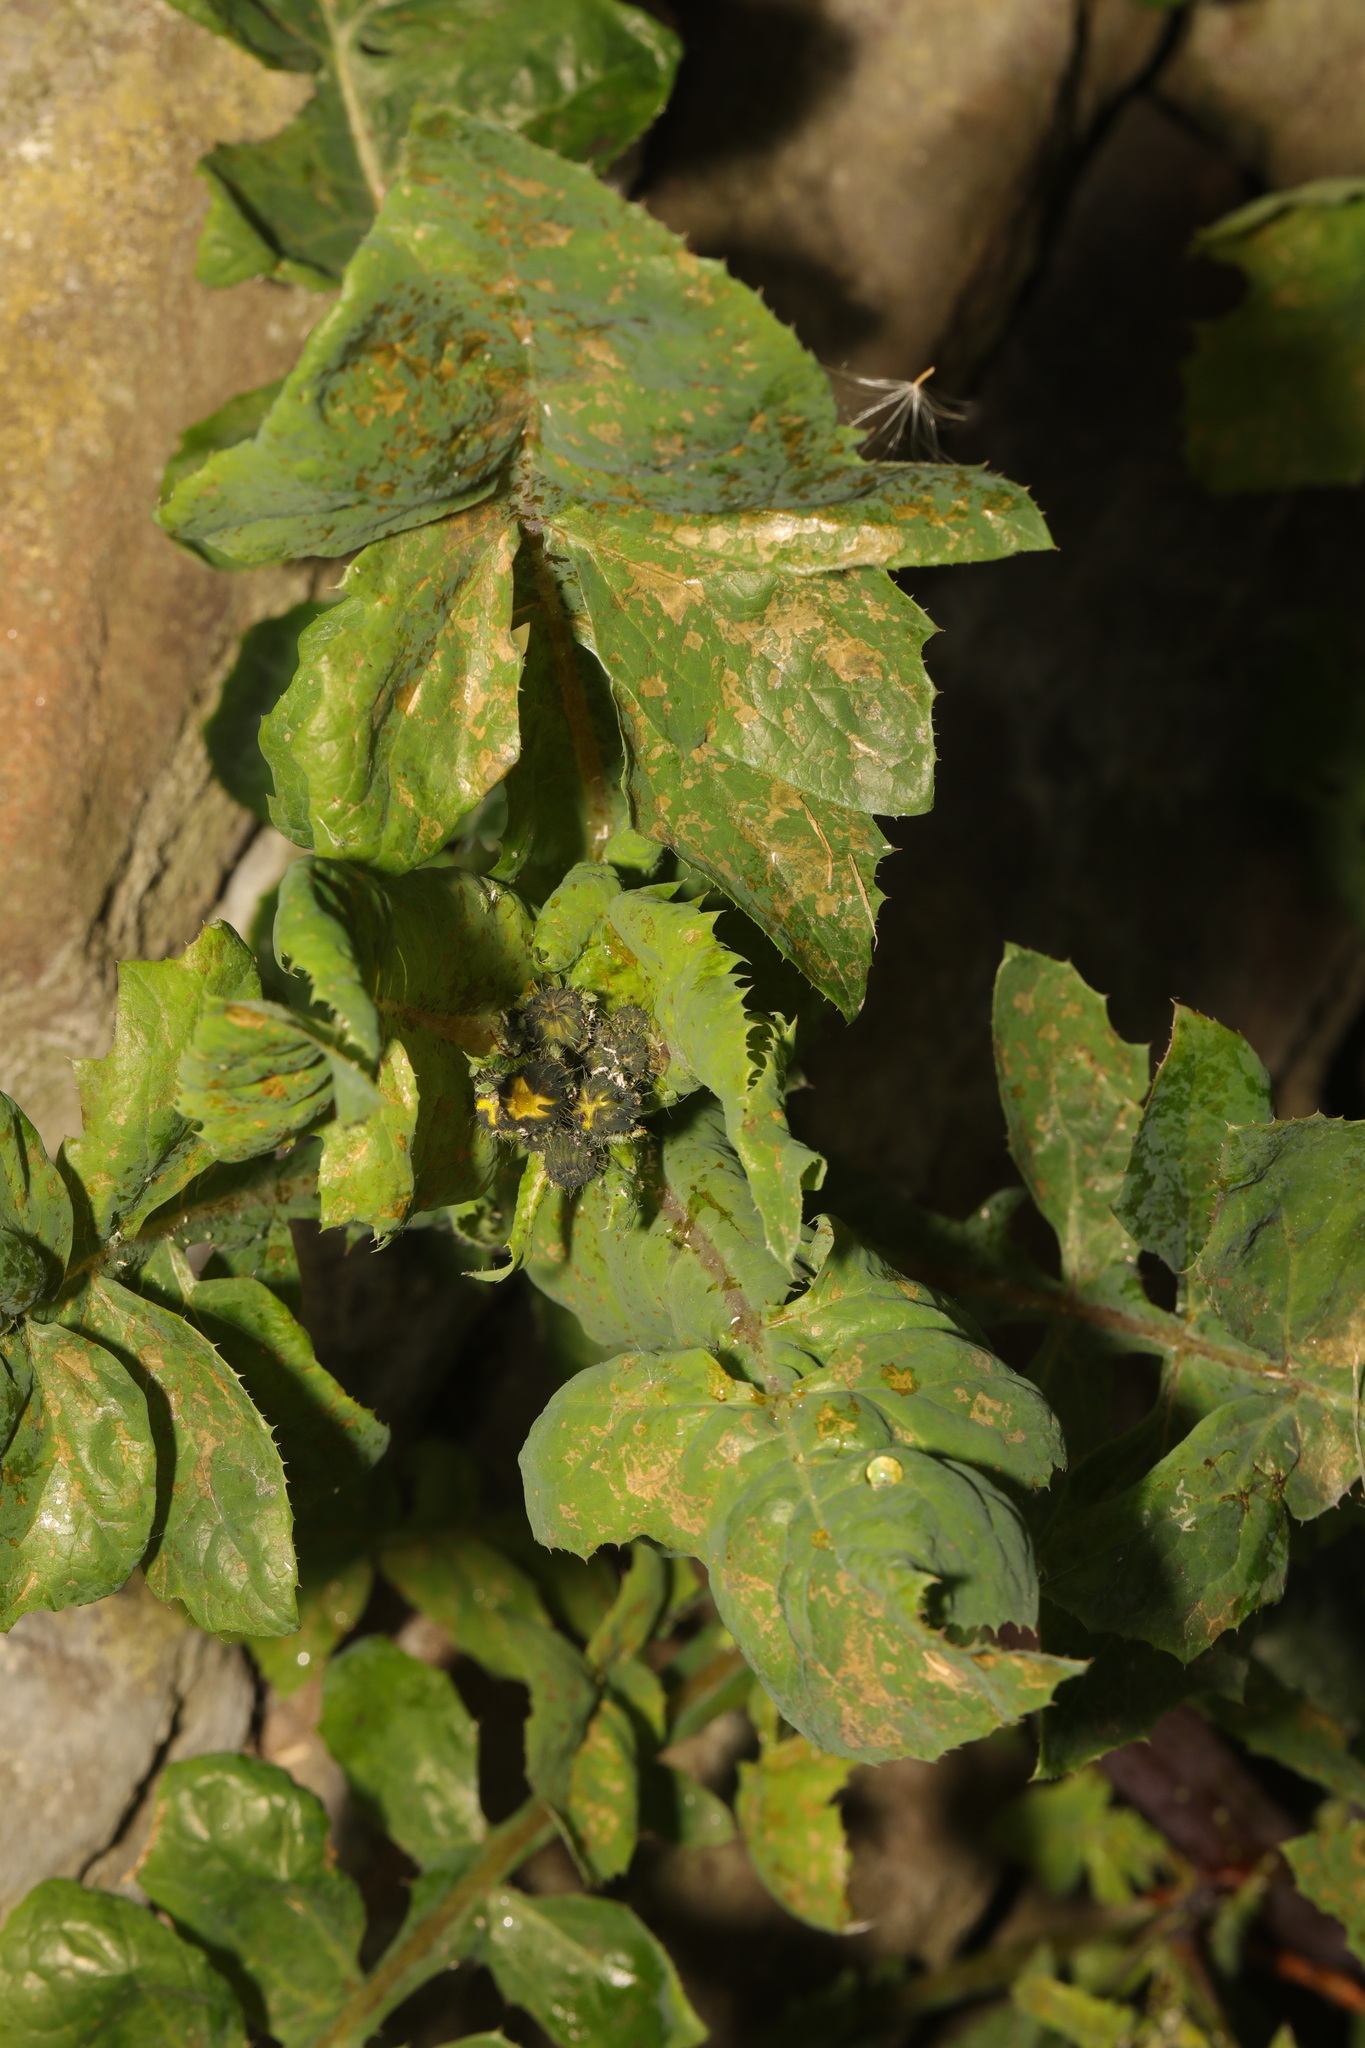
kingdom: Plantae
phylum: Tracheophyta
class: Magnoliopsida
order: Asterales
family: Asteraceae
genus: Sonchus
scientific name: Sonchus oleraceus
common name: Common sowthistle
